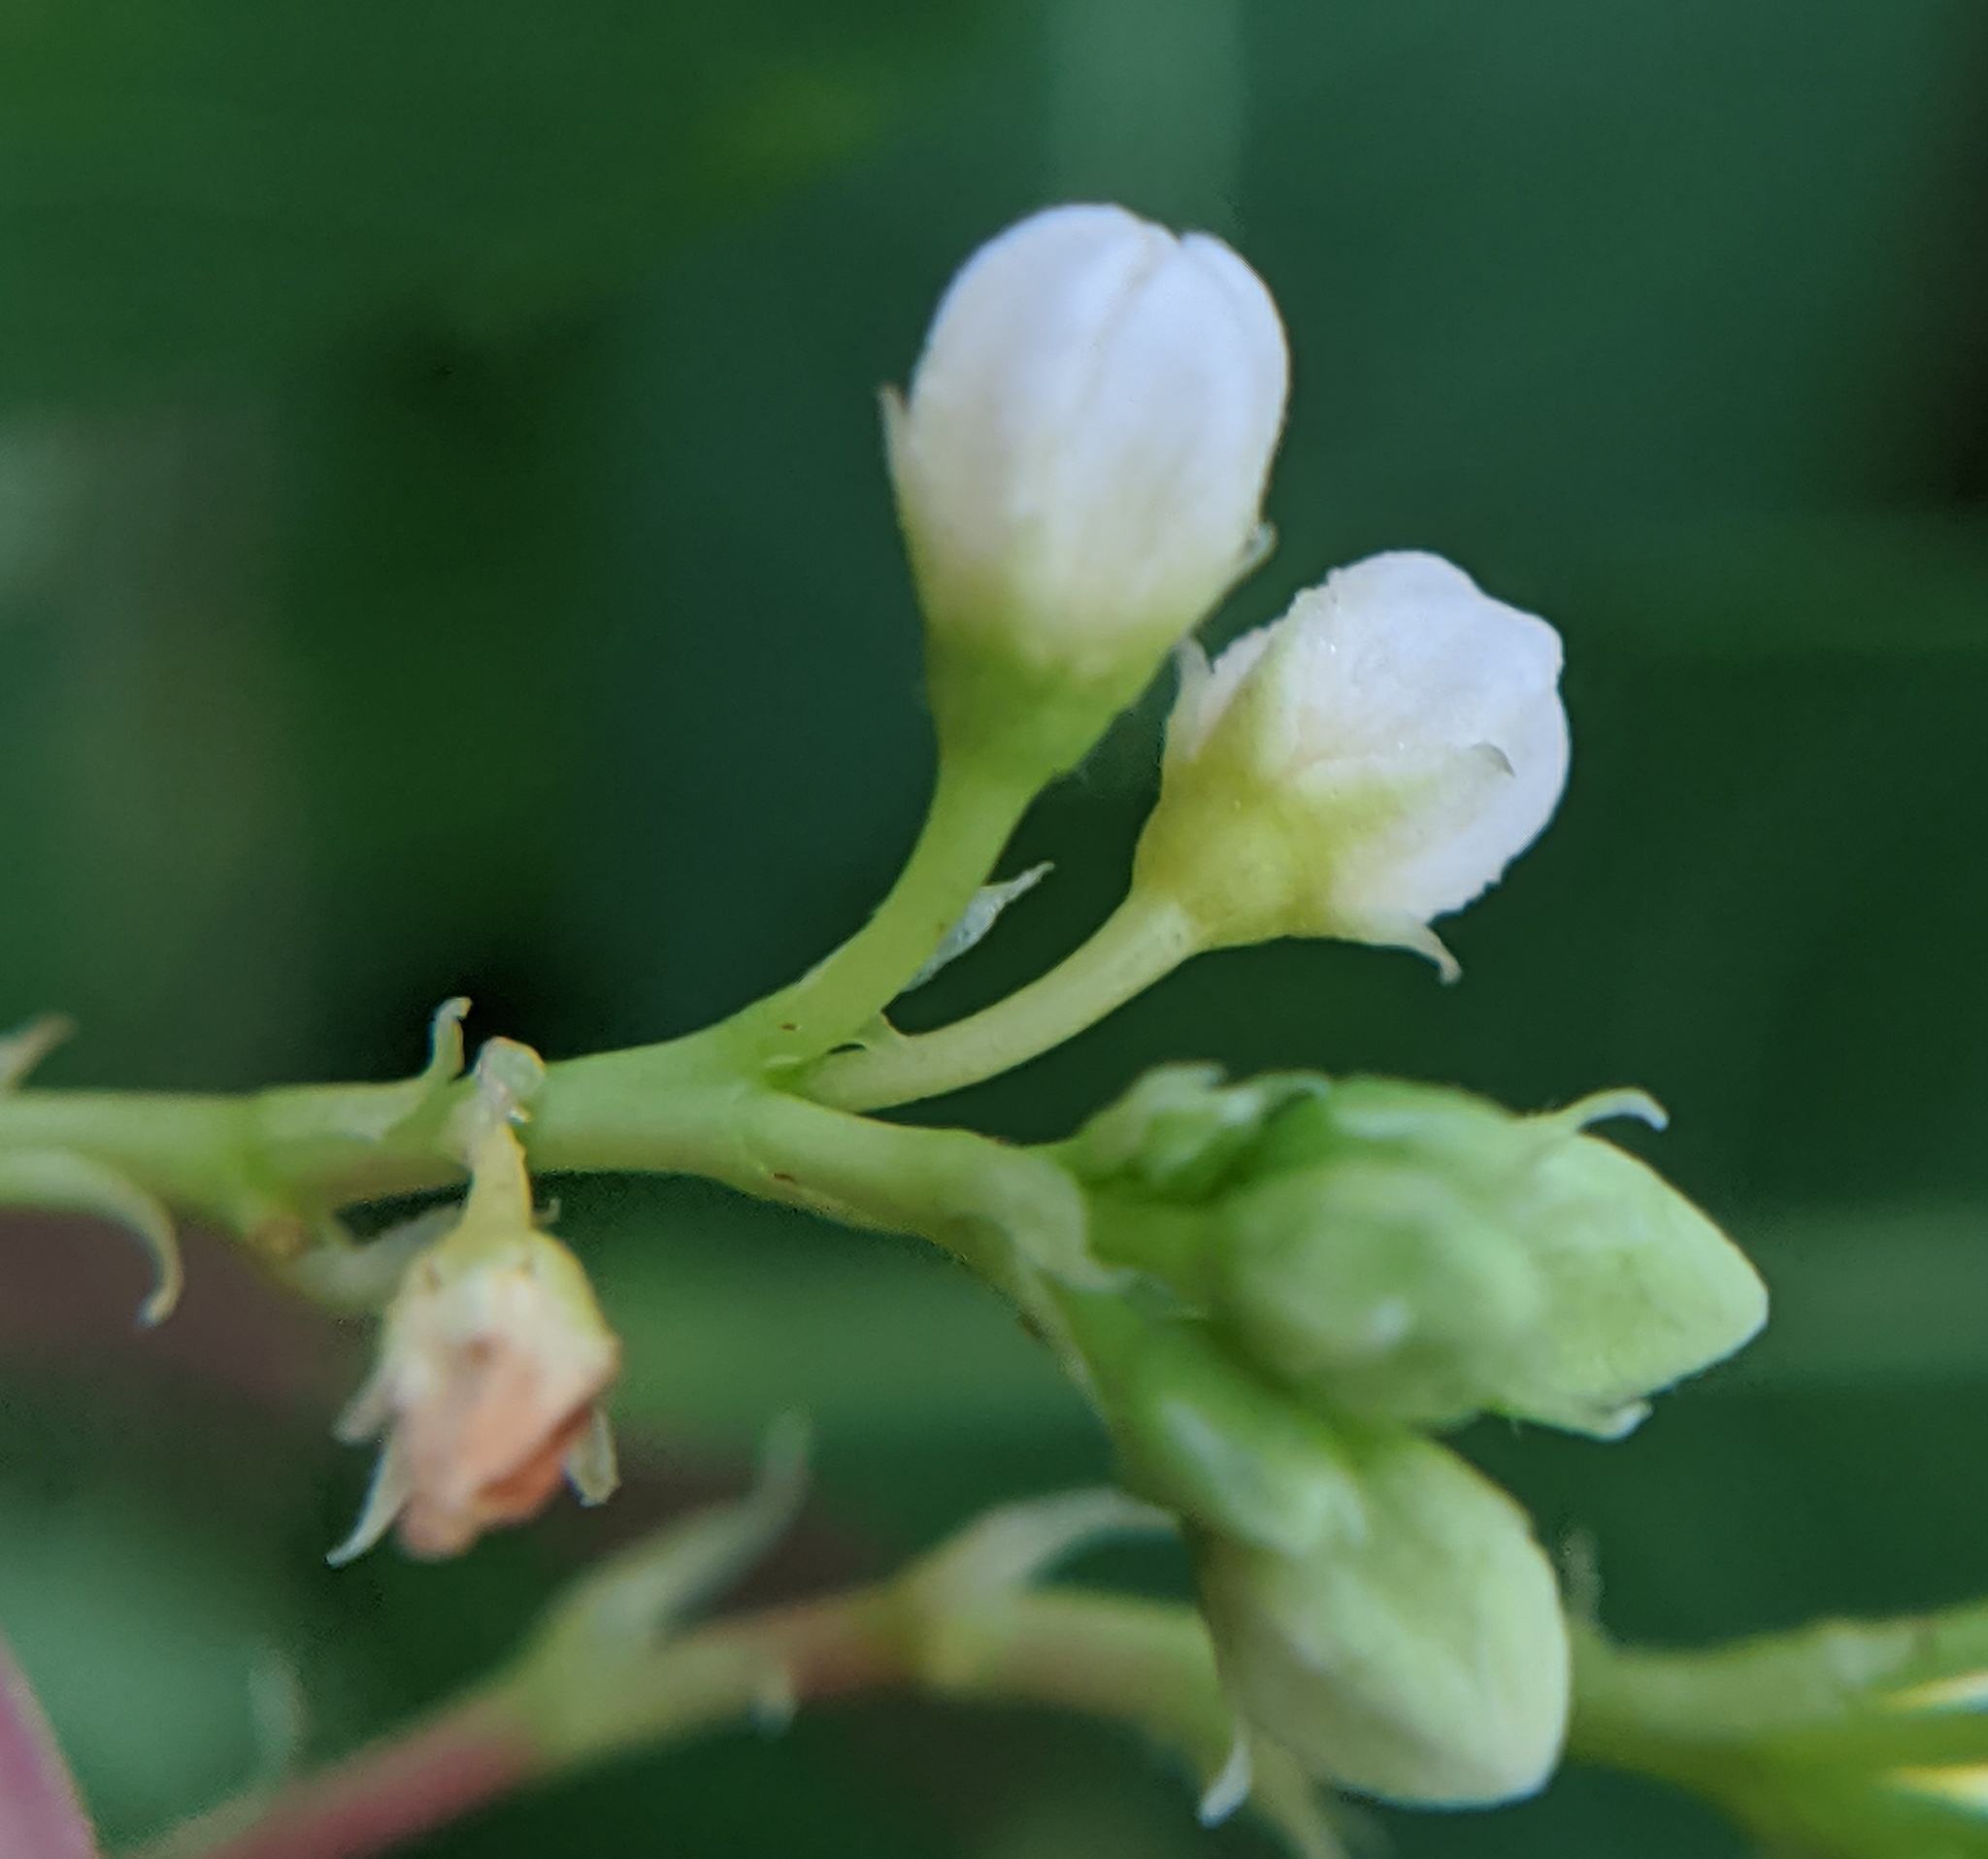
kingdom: Plantae
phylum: Tracheophyta
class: Magnoliopsida
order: Gentianales
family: Apocynaceae
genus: Apocynum
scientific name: Apocynum cannabinum
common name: Hemp dogbane
